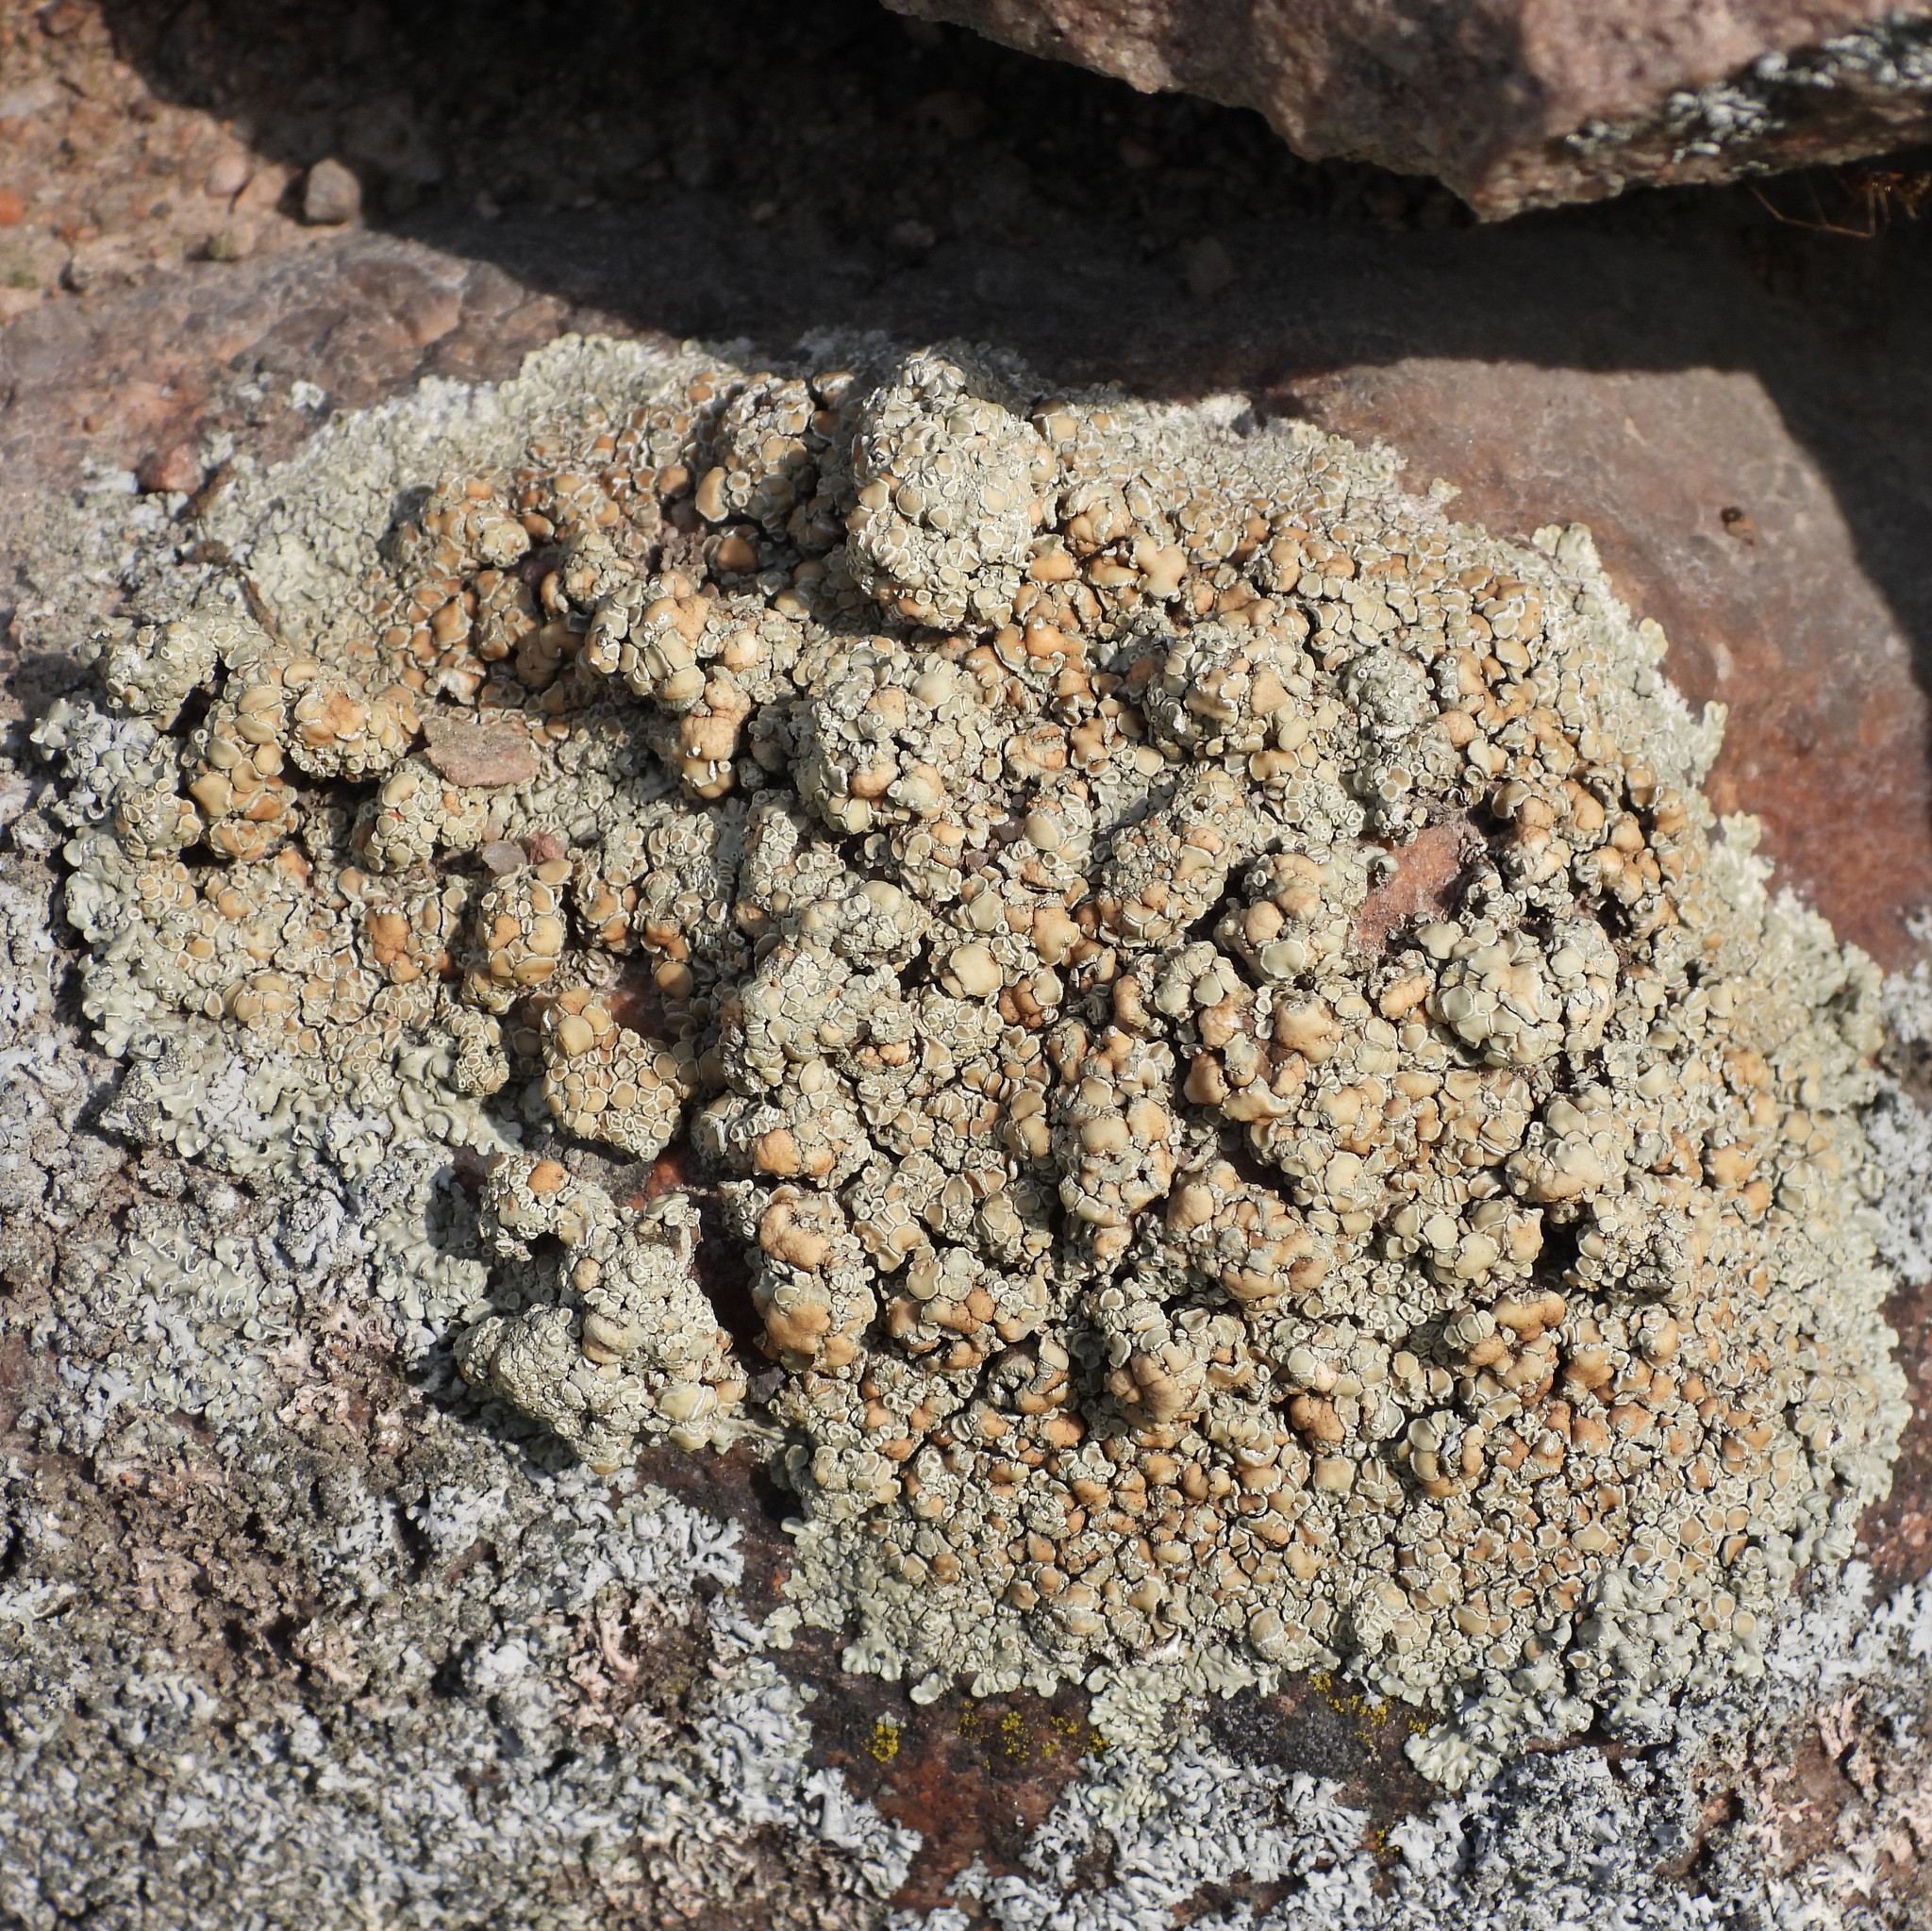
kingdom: Fungi
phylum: Ascomycota
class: Lecanoromycetes
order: Lecanorales
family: Lecanoraceae
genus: Protoparmeliopsis
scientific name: Protoparmeliopsis muralis
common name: Stonewall rim lichen
